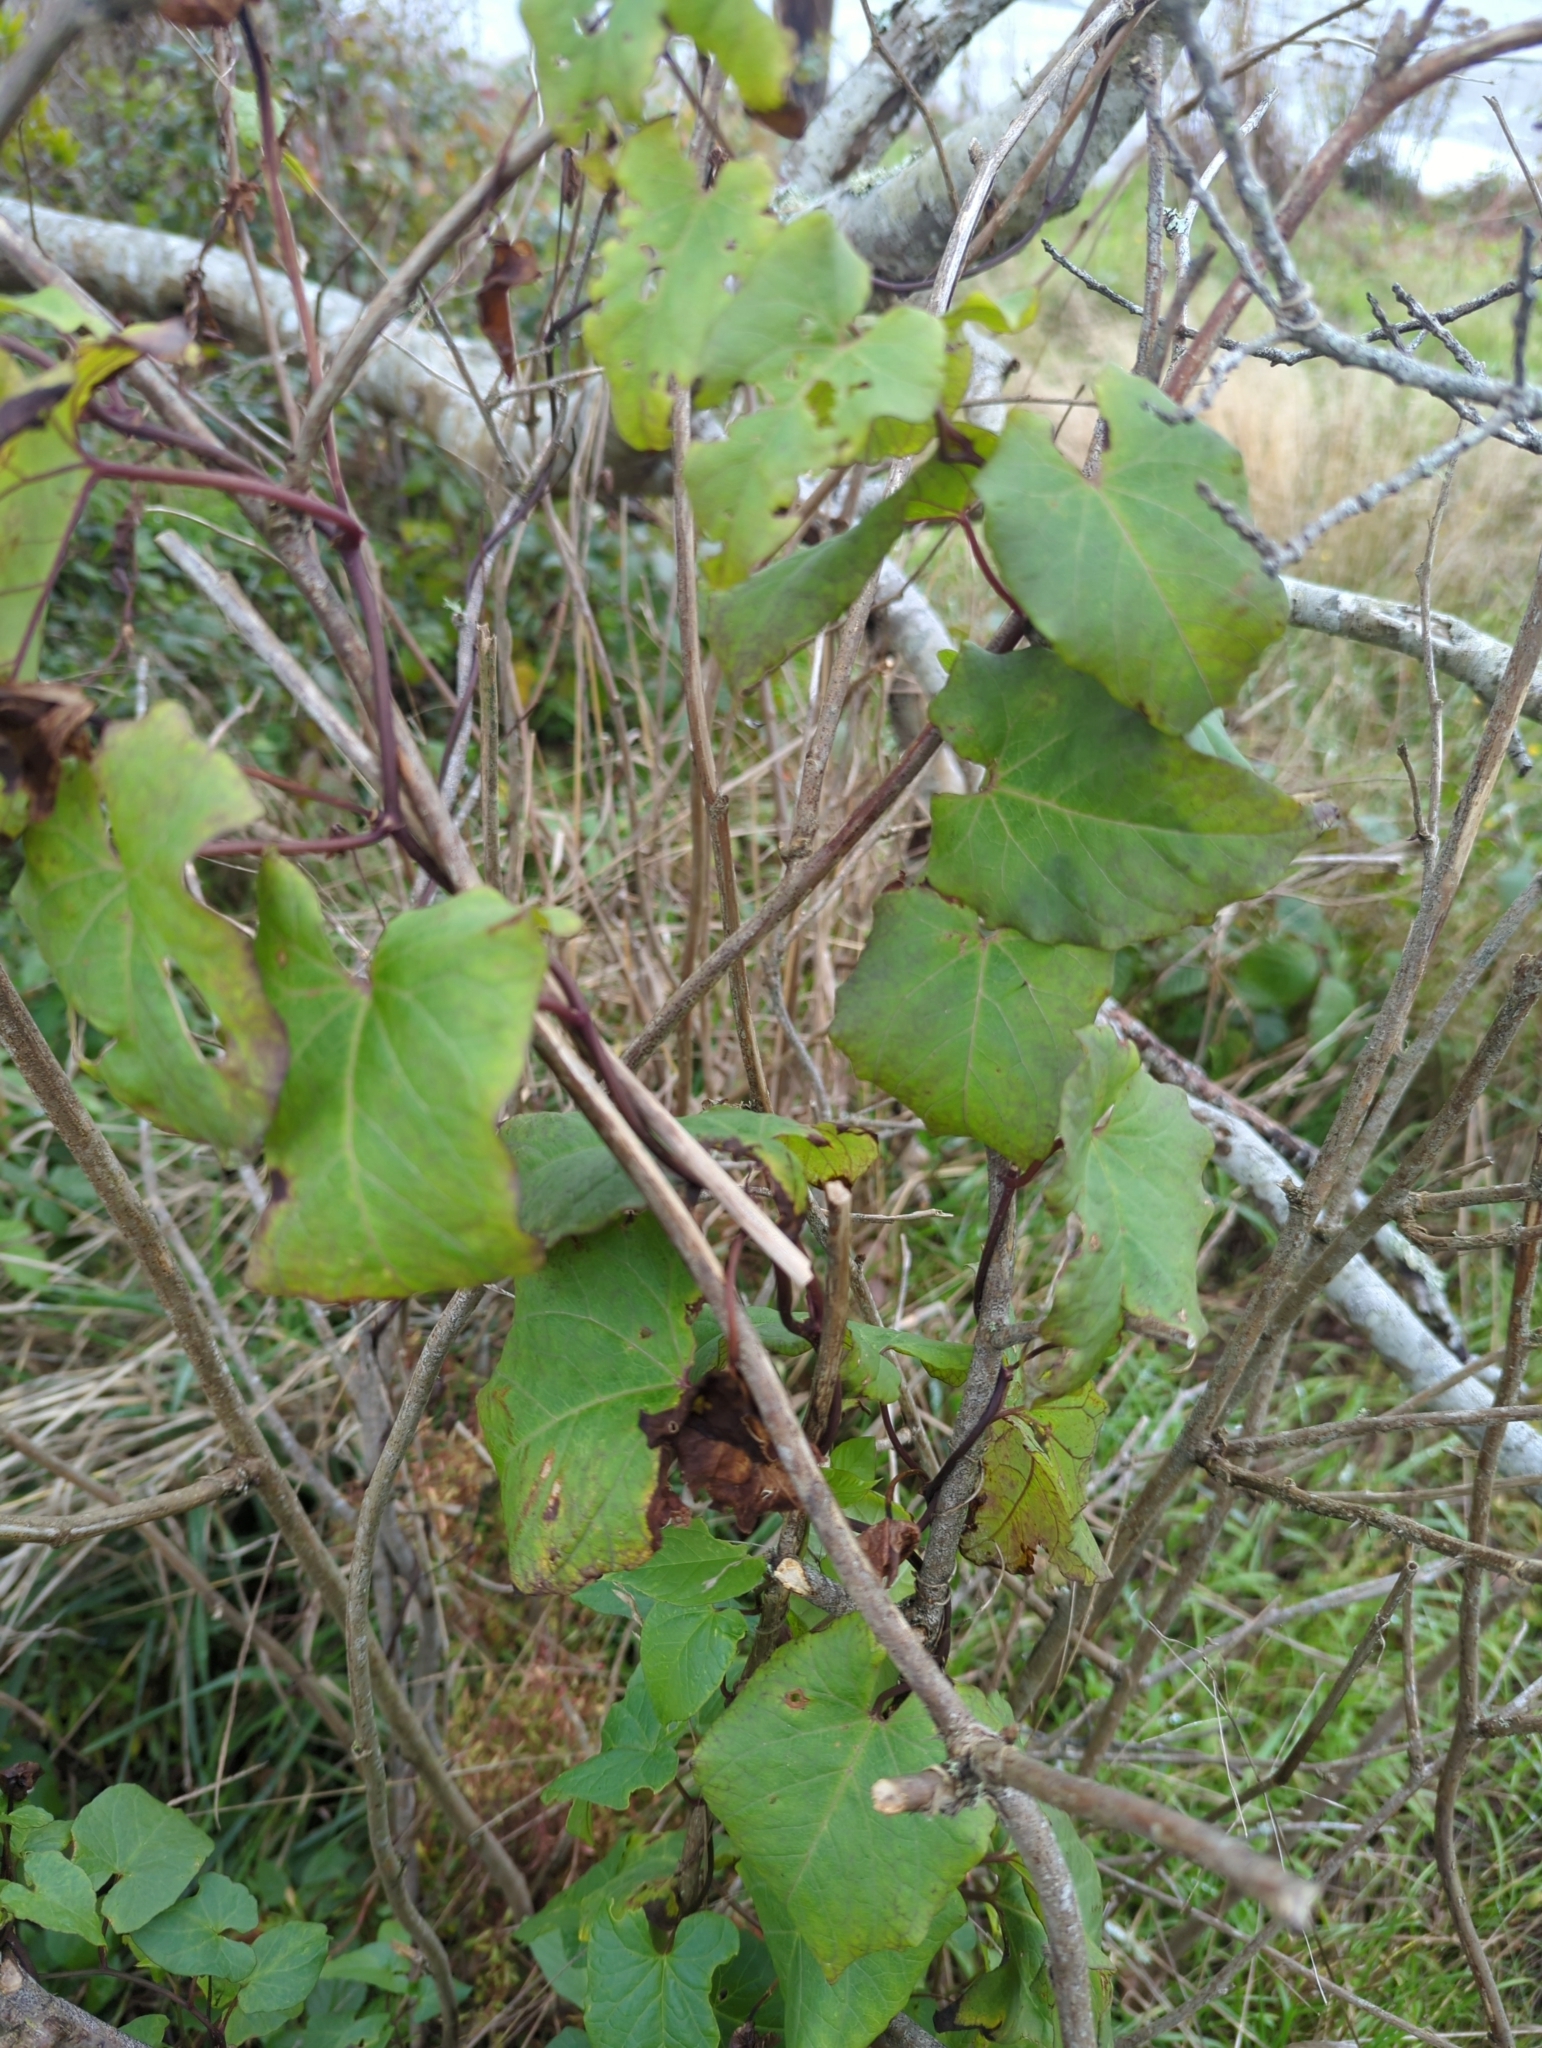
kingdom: Plantae
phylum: Tracheophyta
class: Magnoliopsida
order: Solanales
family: Convolvulaceae
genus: Calystegia
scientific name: Calystegia silvatica
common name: Large bindweed
